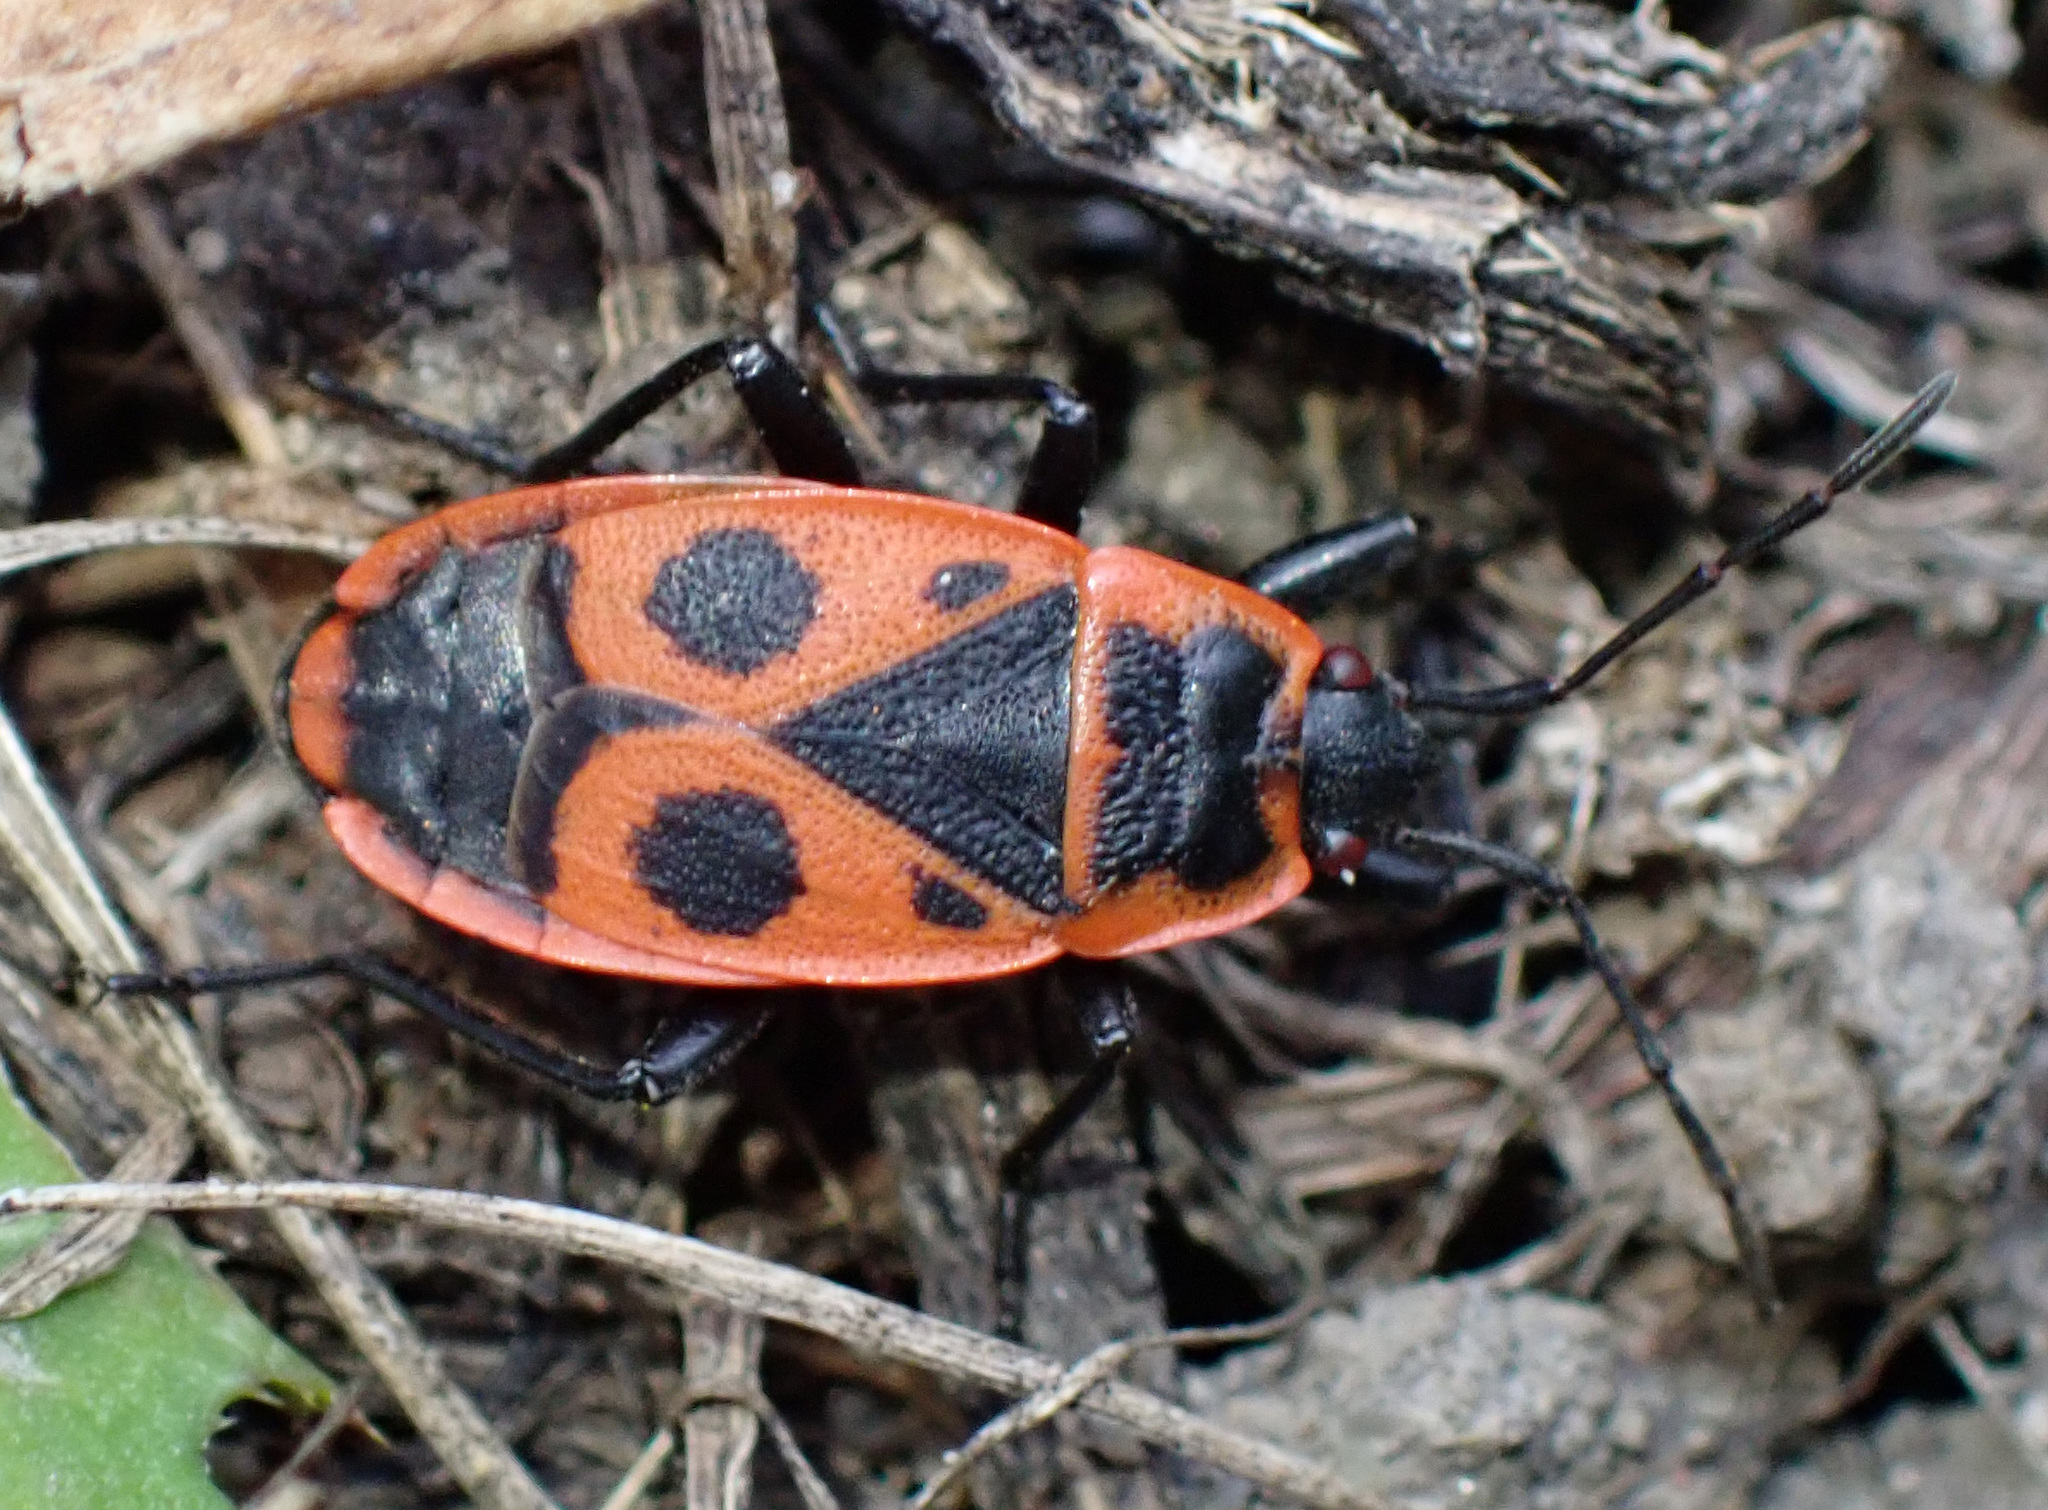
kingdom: Animalia
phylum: Arthropoda
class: Insecta
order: Hemiptera
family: Pyrrhocoridae
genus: Pyrrhocoris
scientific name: Pyrrhocoris apterus
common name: Firebug
